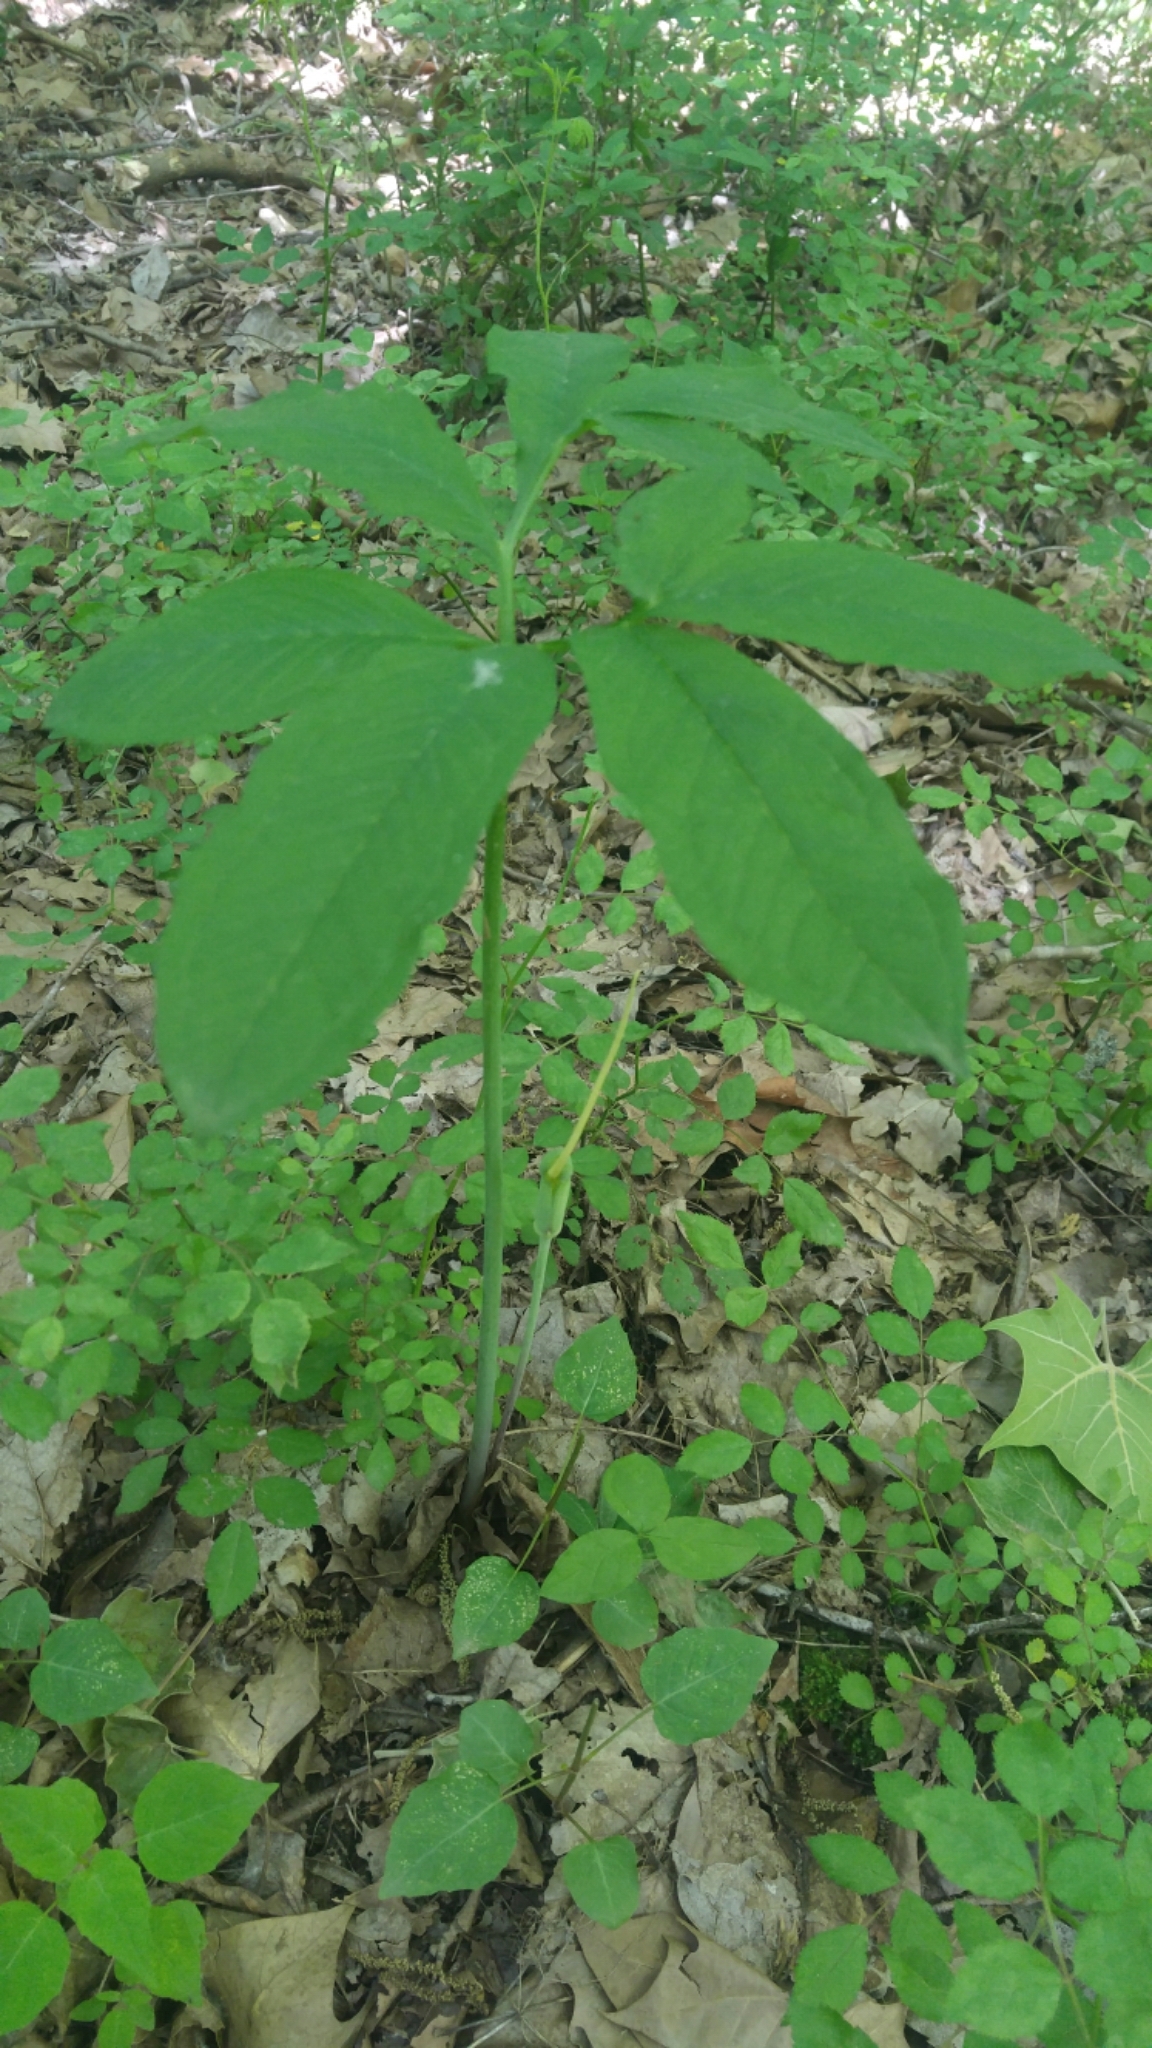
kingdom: Plantae
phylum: Tracheophyta
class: Liliopsida
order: Alismatales
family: Araceae
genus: Arisaema
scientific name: Arisaema dracontium
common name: Dragon-arum
